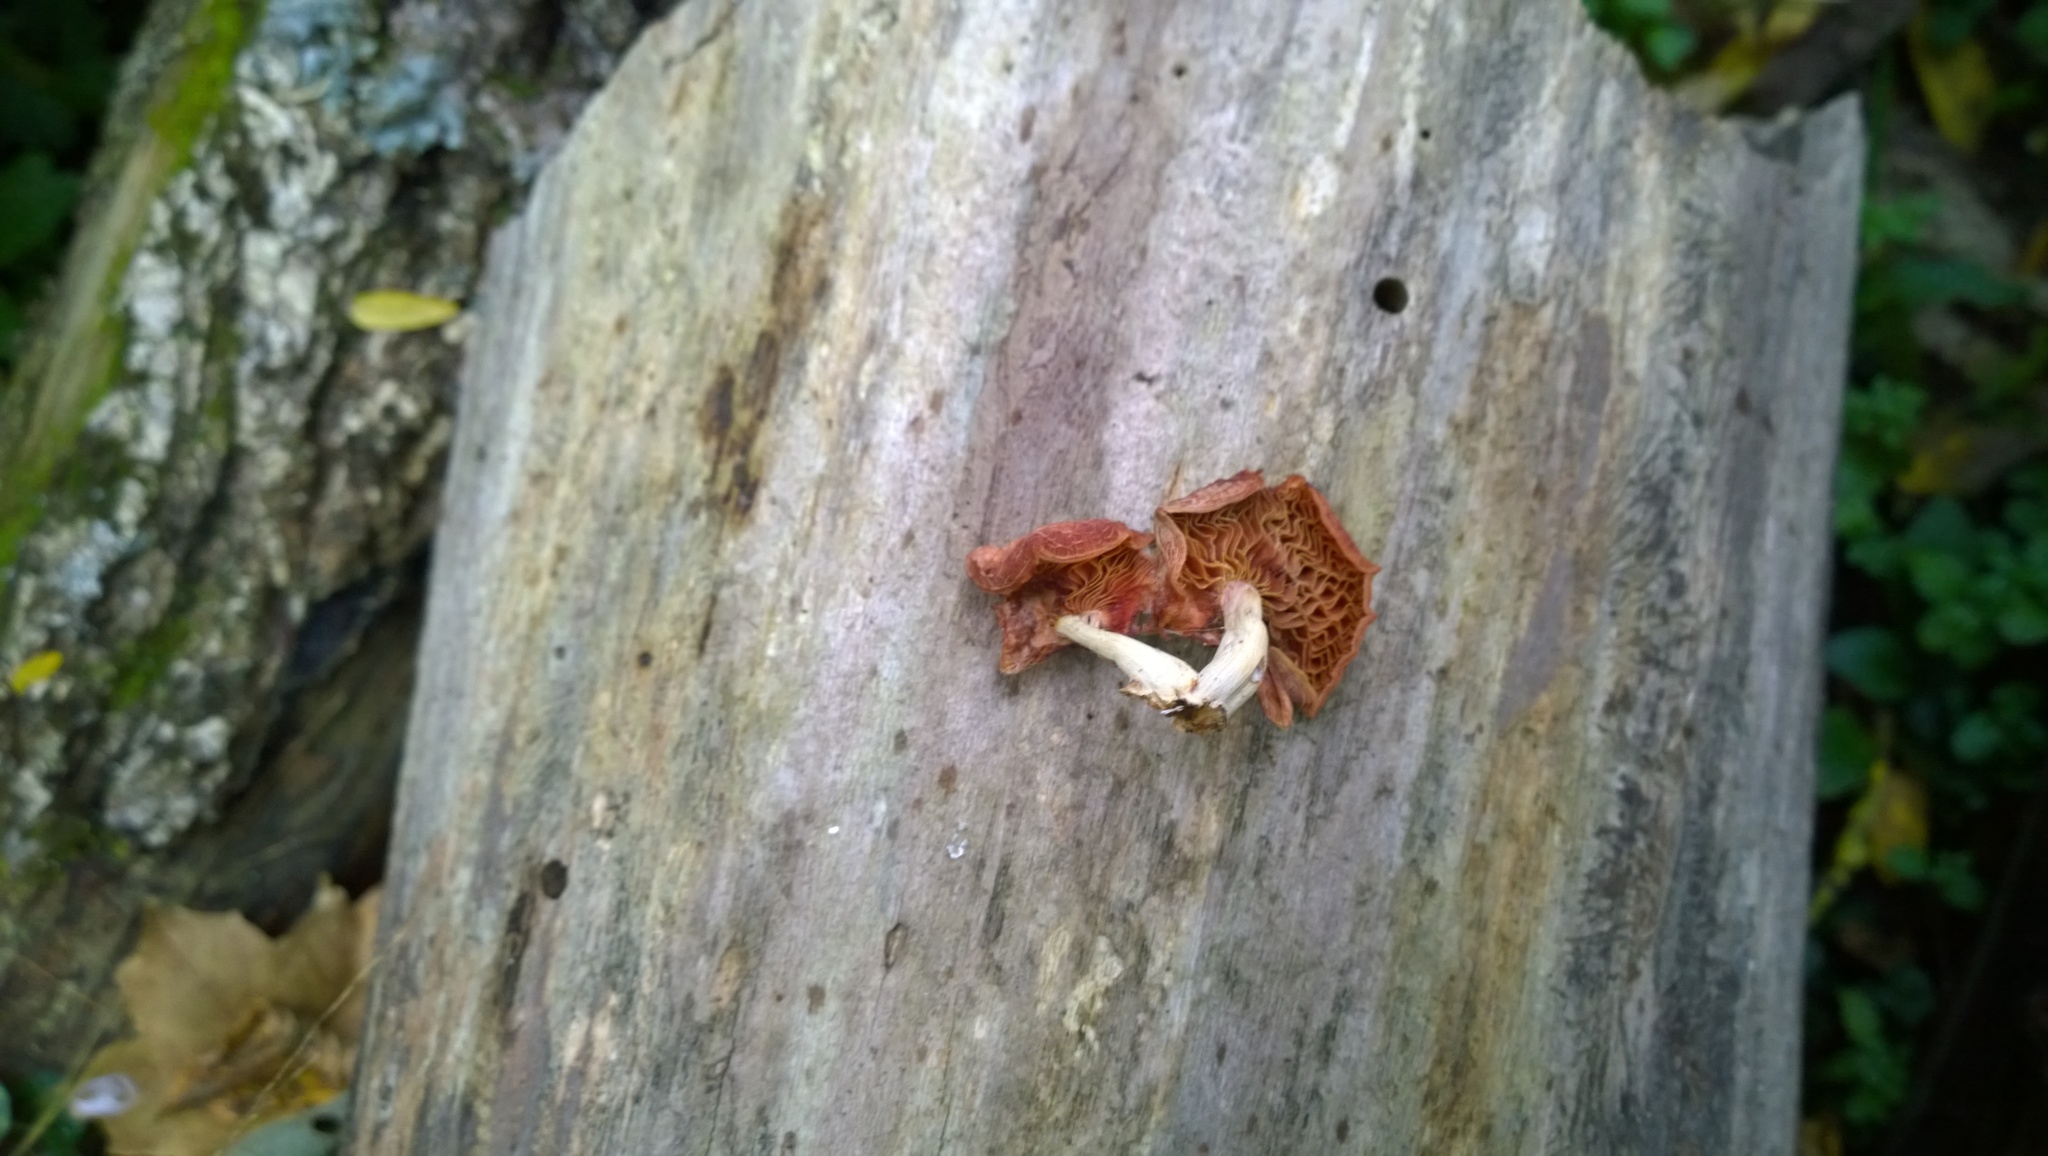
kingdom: Fungi
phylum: Basidiomycota
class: Agaricomycetes
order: Agaricales
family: Physalacriaceae
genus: Rhodotus
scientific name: Rhodotus palmatus
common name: Wrinkled peach
